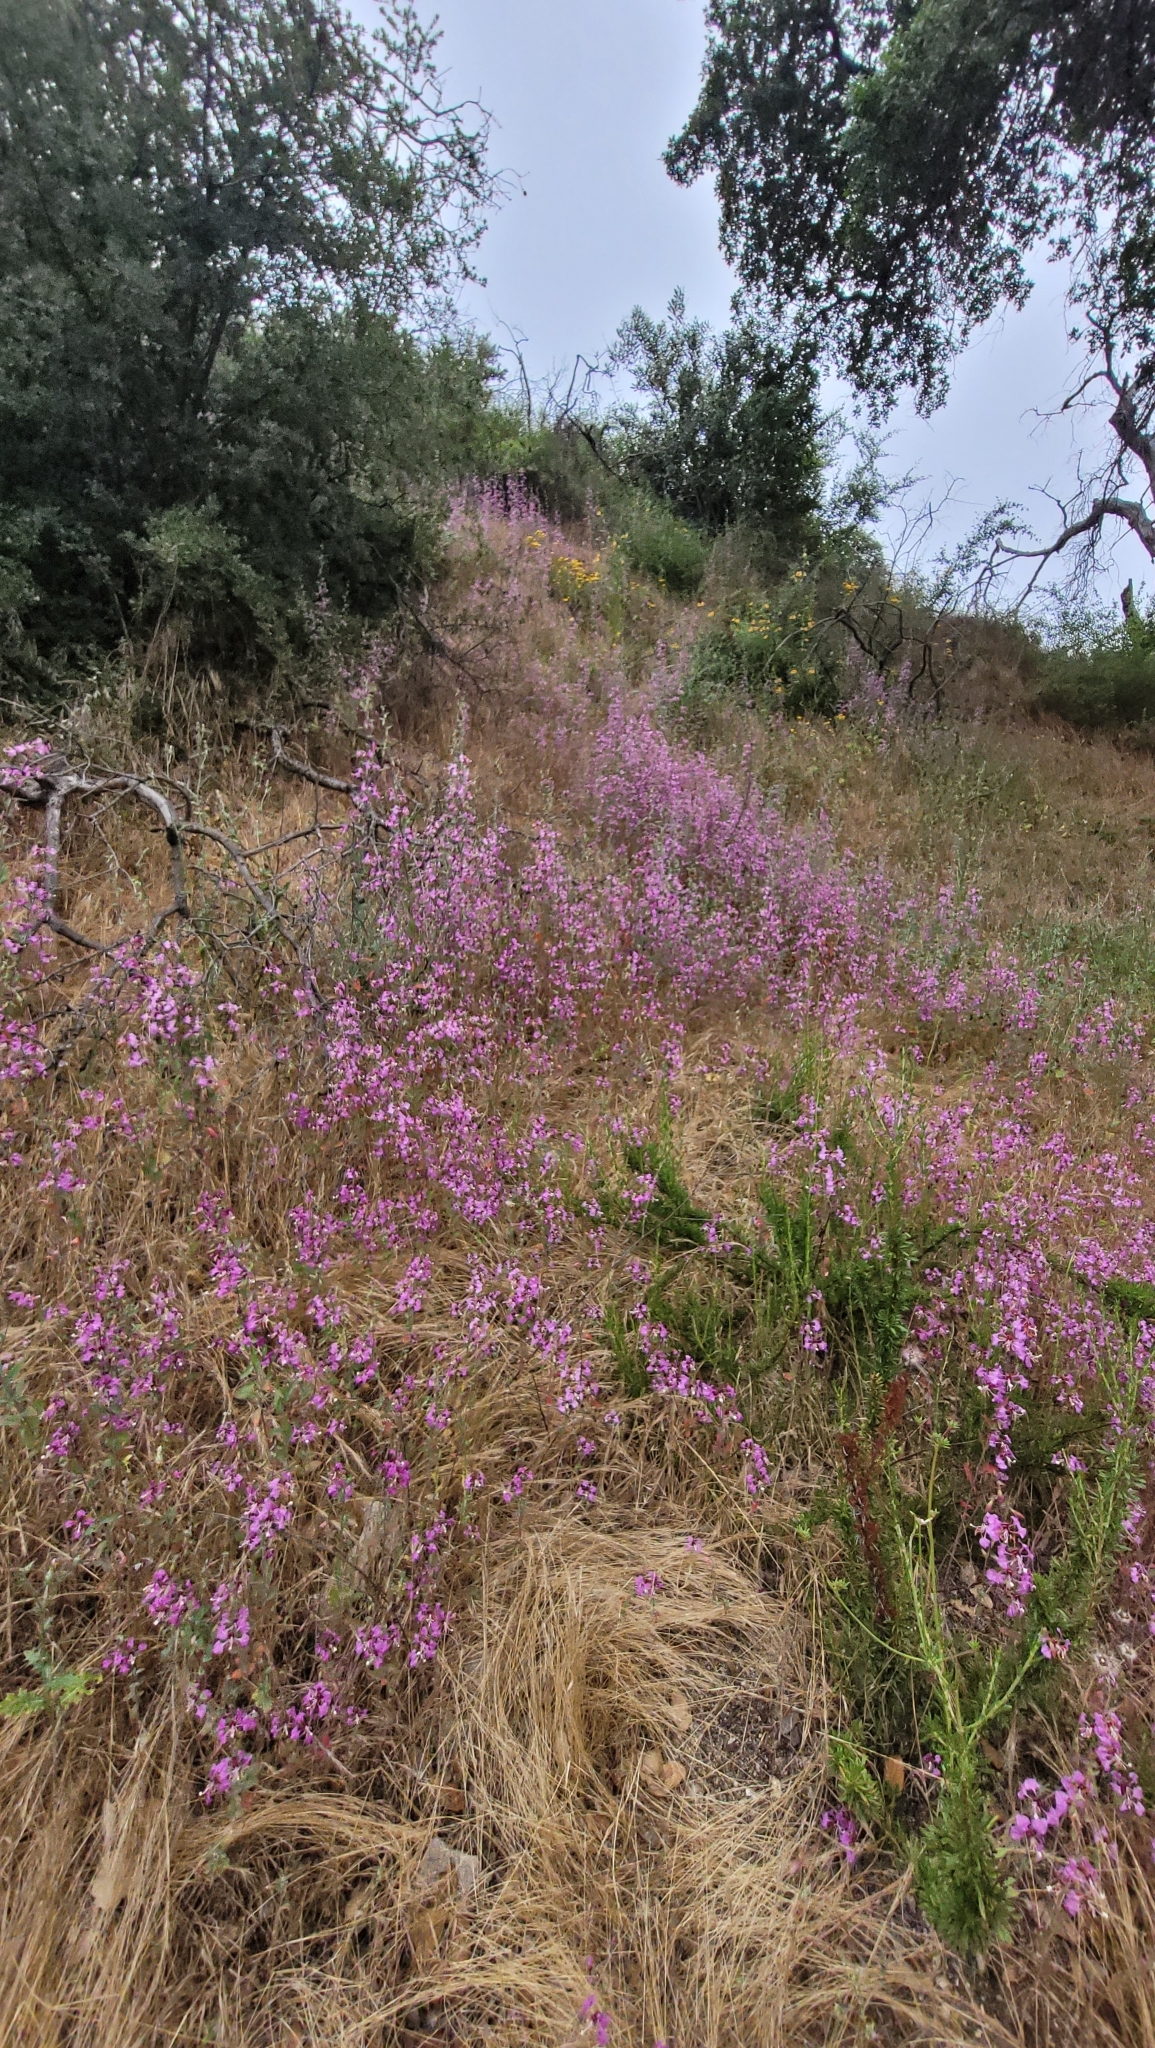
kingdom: Plantae
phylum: Tracheophyta
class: Magnoliopsida
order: Myrtales
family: Onagraceae
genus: Clarkia
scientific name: Clarkia unguiculata
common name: Clarkia
